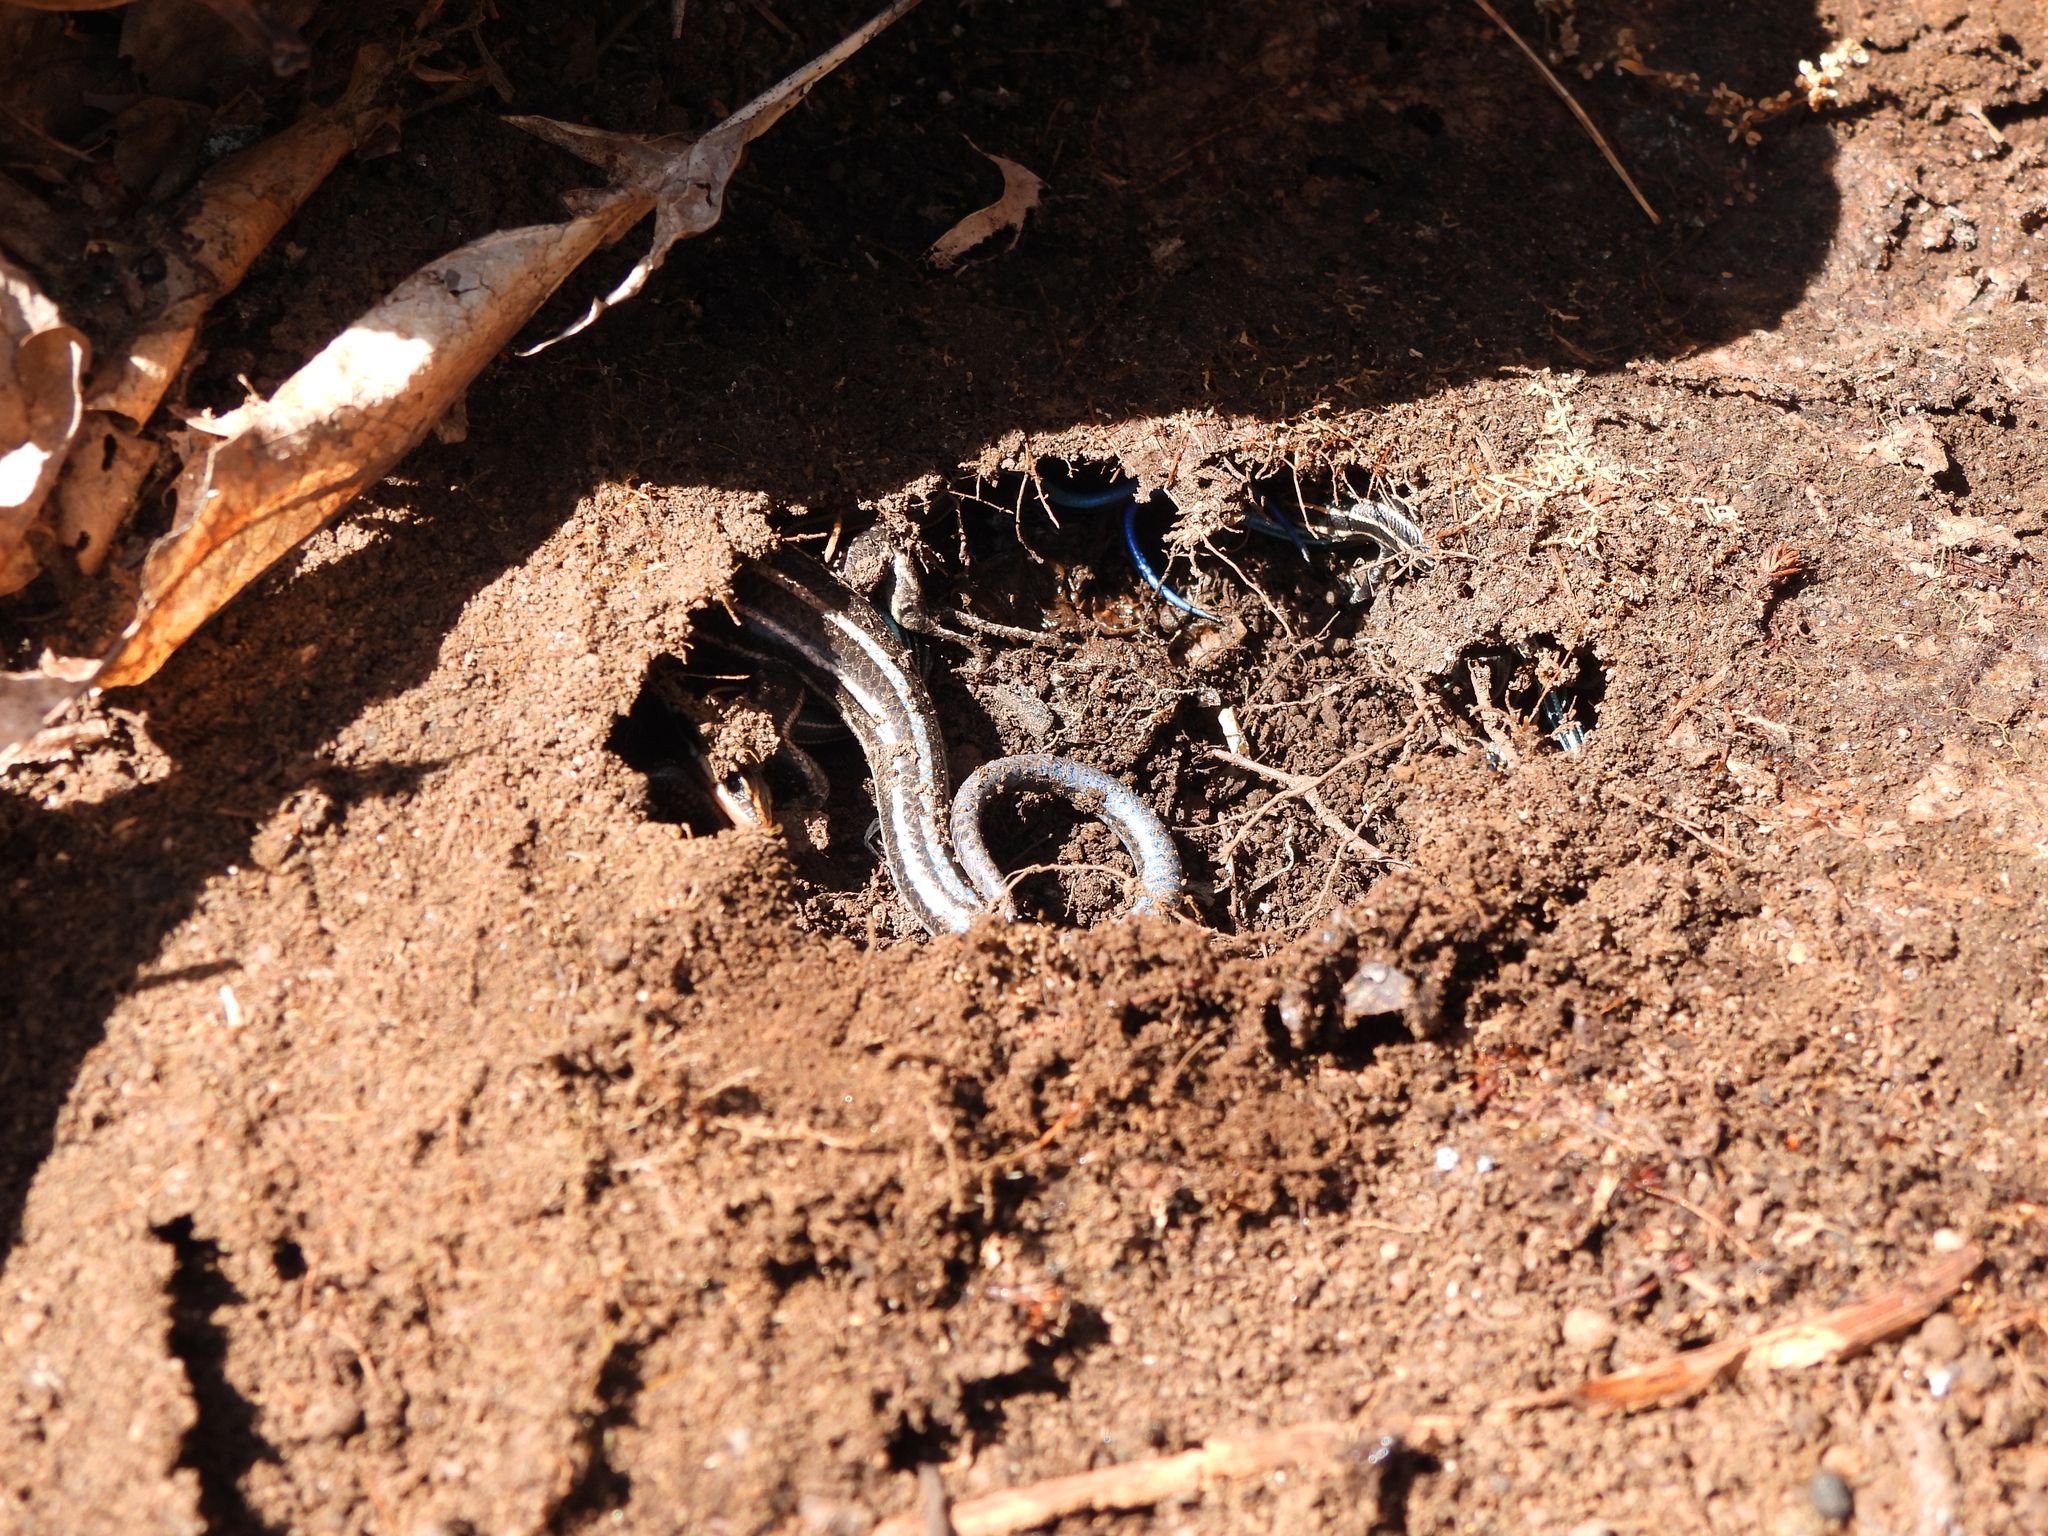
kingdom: Animalia
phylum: Chordata
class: Squamata
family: Scincidae
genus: Plestiodon
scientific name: Plestiodon fasciatus
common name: Five-lined skink
